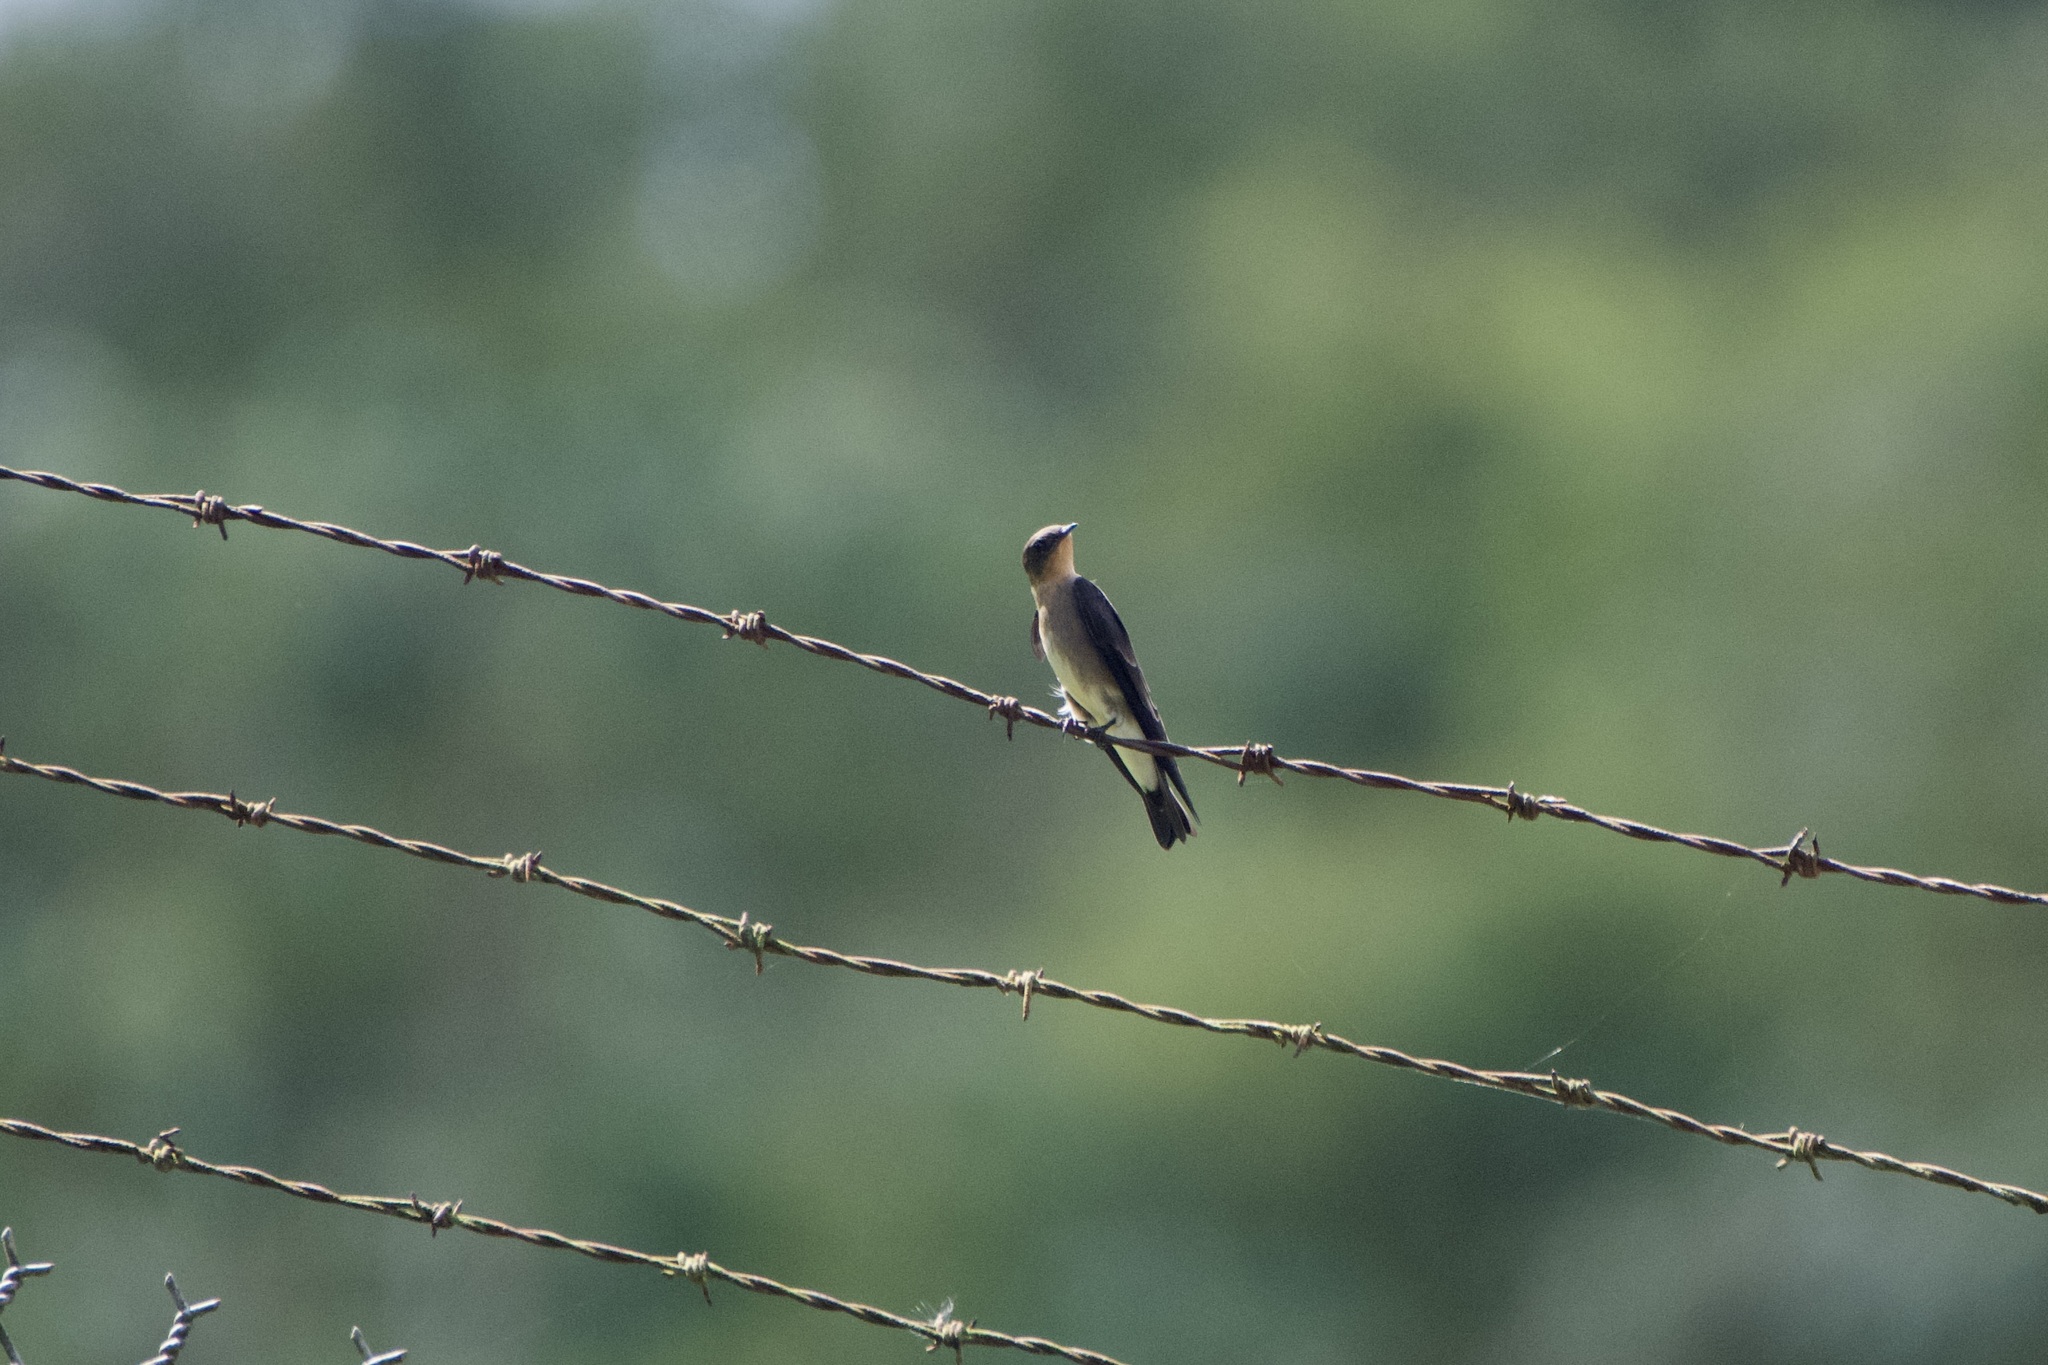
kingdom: Animalia
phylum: Chordata
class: Aves
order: Passeriformes
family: Hirundinidae
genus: Stelgidopteryx
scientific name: Stelgidopteryx ruficollis
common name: Southern rough-winged swallow
